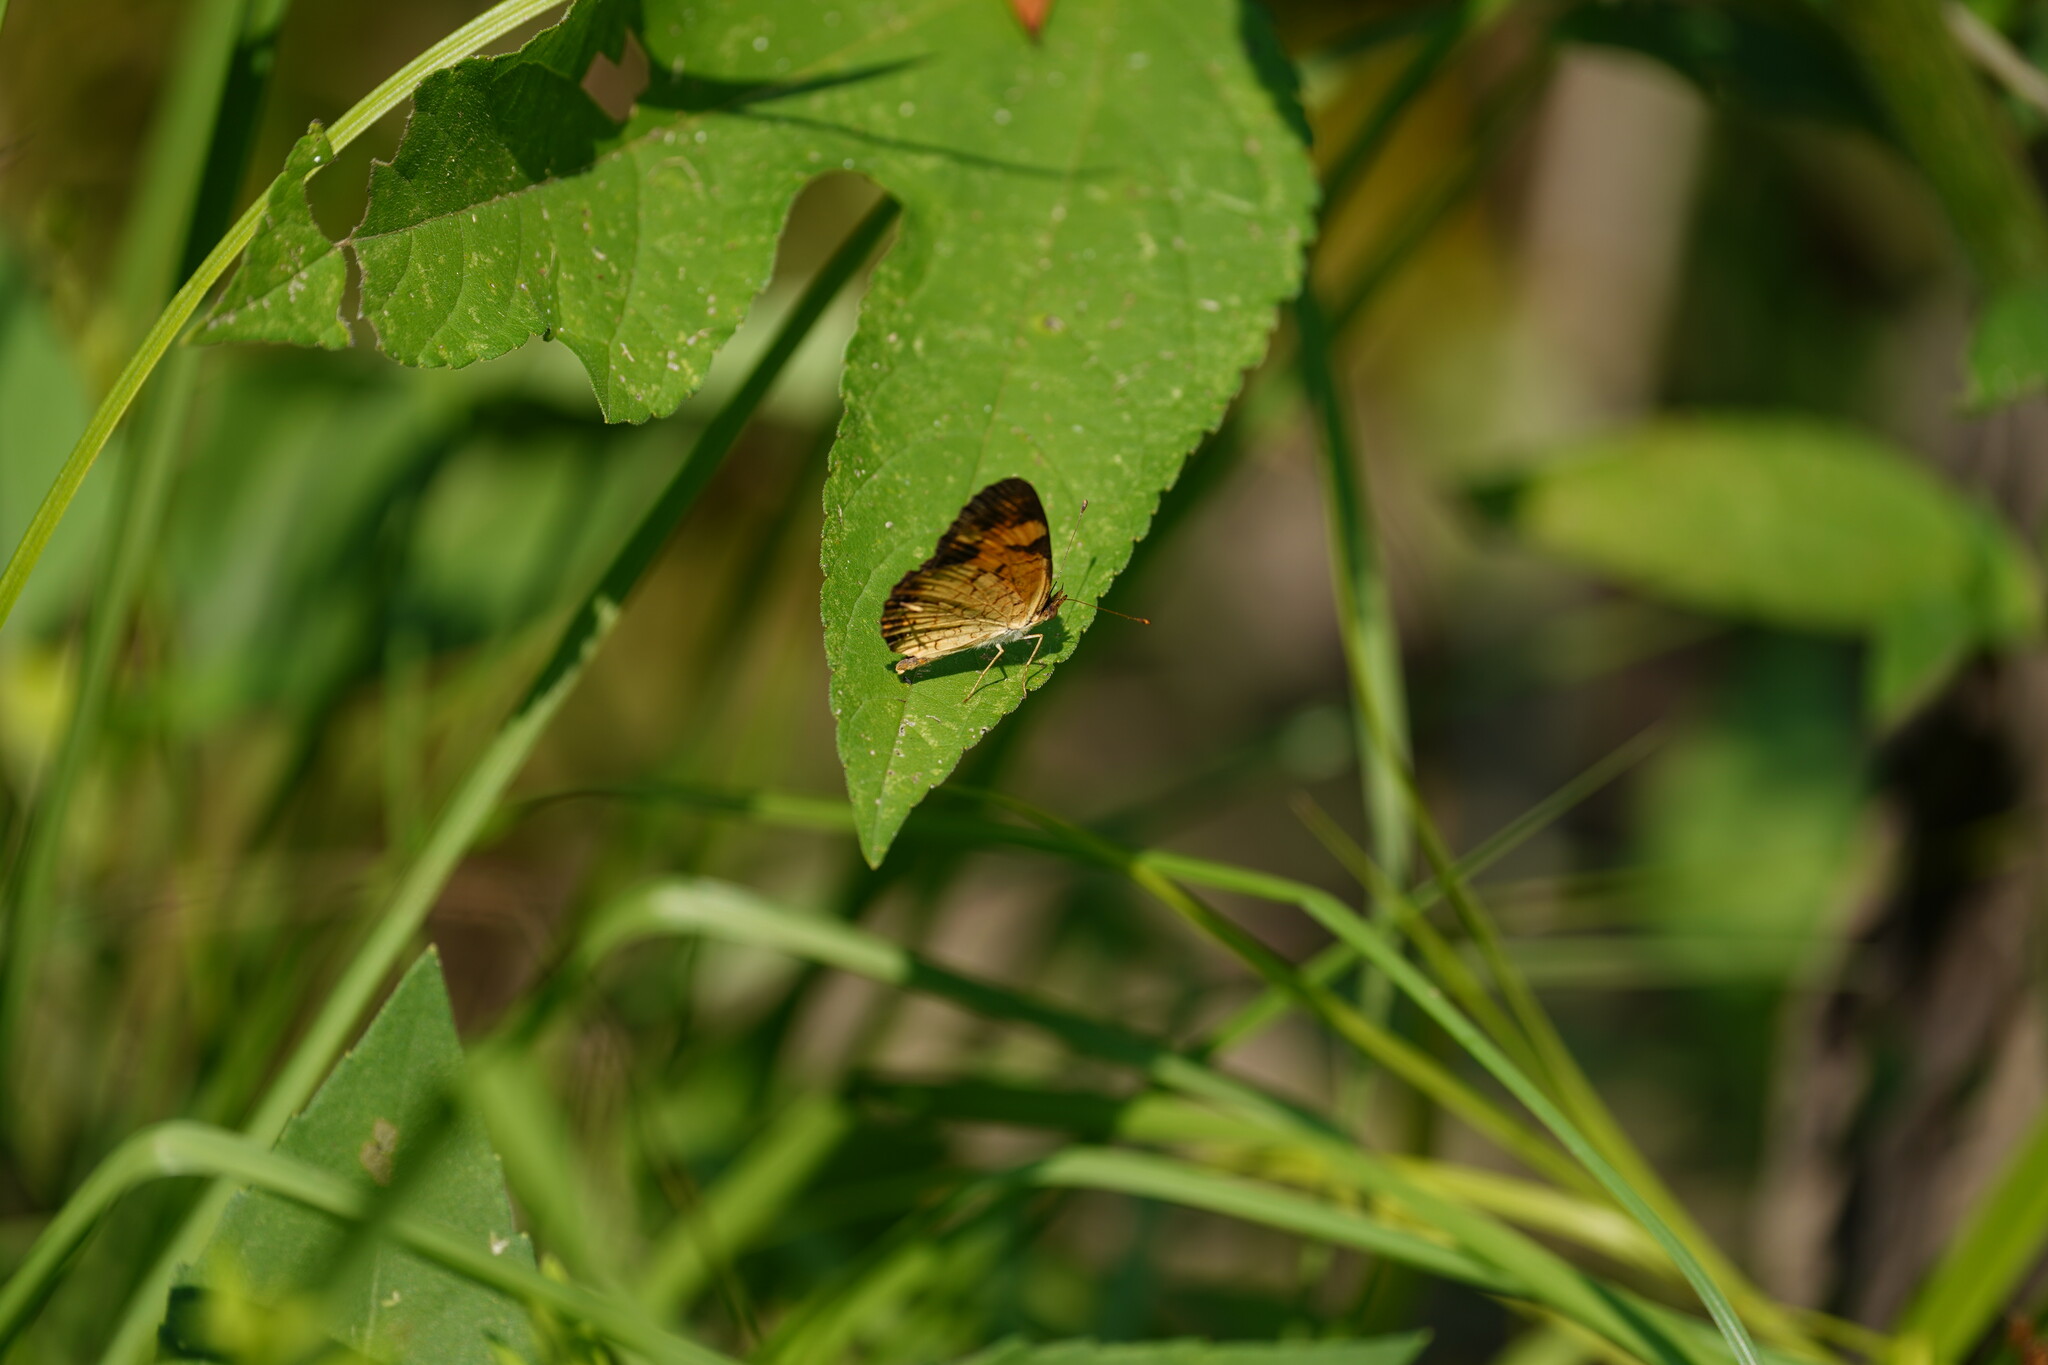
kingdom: Animalia
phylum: Arthropoda
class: Insecta
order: Lepidoptera
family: Nymphalidae
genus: Phyciodes
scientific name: Phyciodes tharos
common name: Pearl crescent
